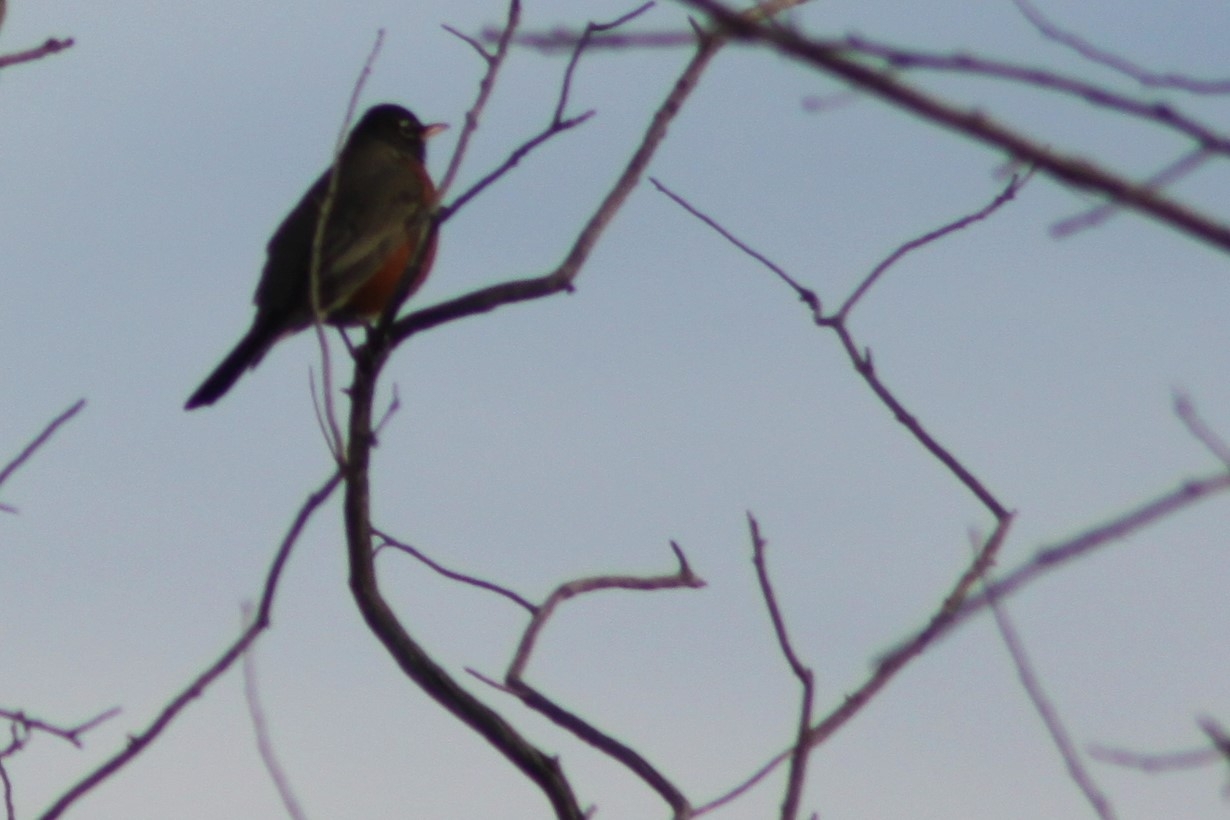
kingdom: Animalia
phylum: Chordata
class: Aves
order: Passeriformes
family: Turdidae
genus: Turdus
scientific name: Turdus migratorius
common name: American robin
